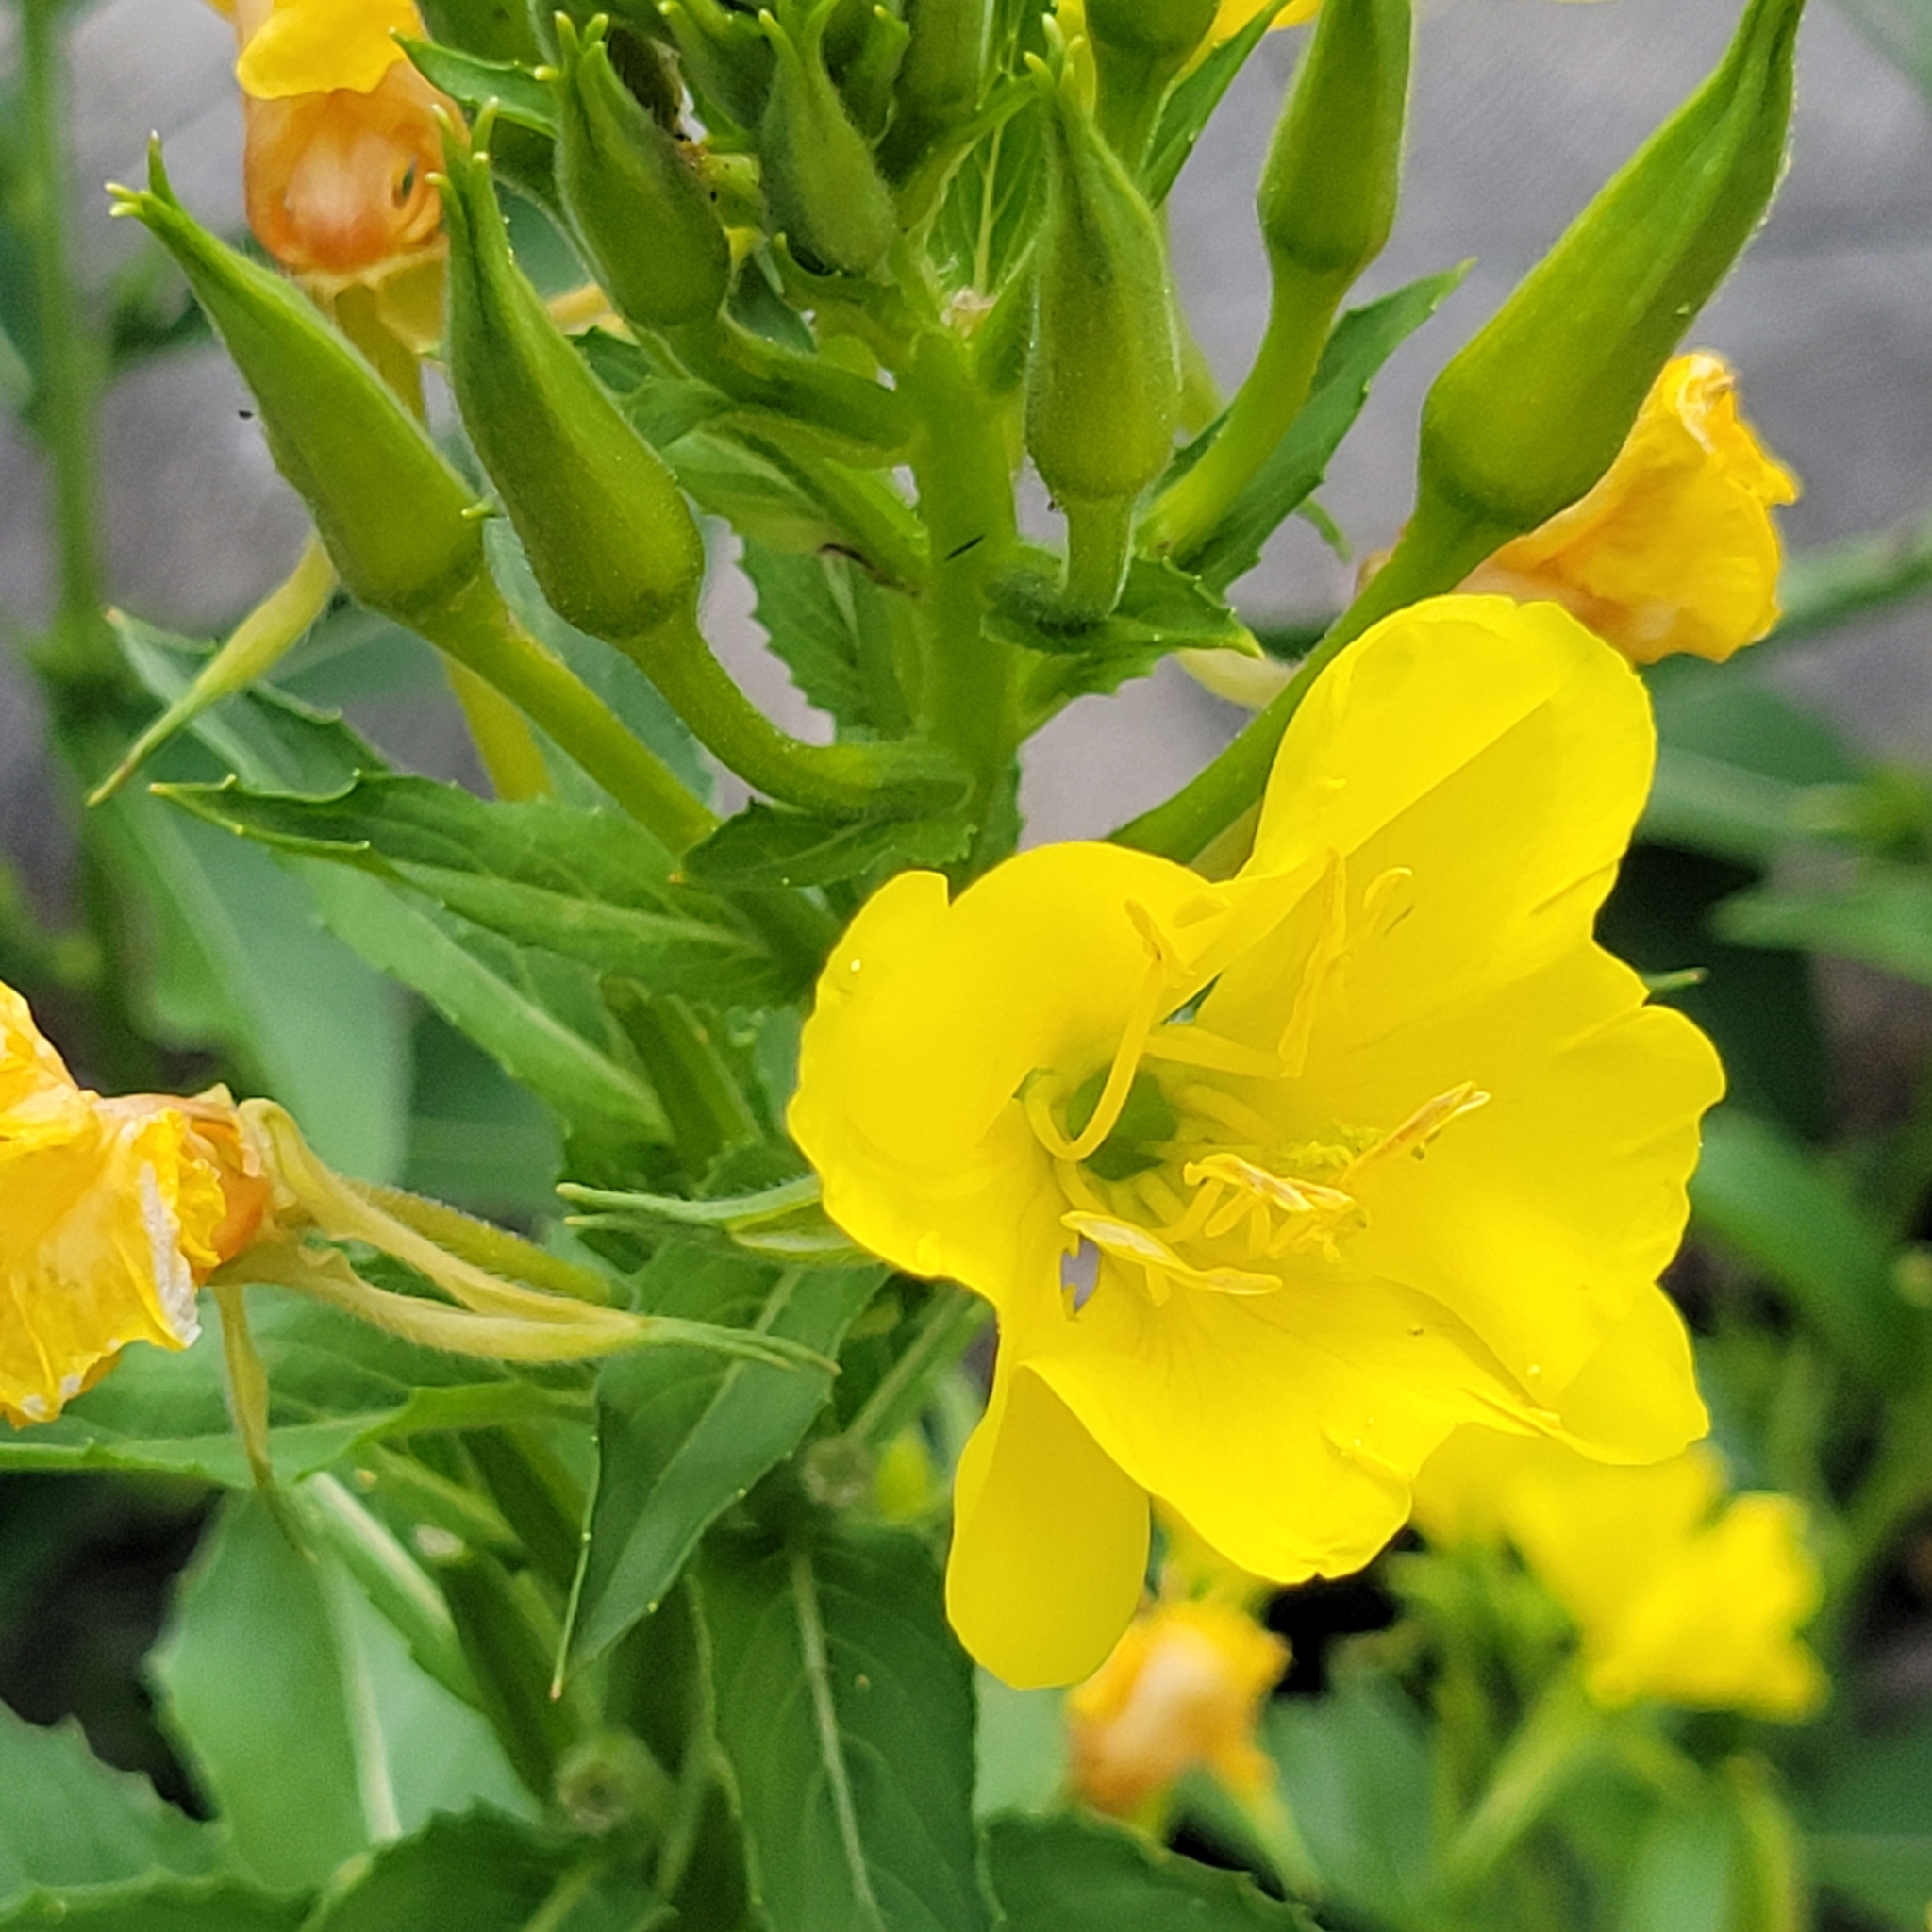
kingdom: Plantae
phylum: Tracheophyta
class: Magnoliopsida
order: Myrtales
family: Onagraceae
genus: Oenothera
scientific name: Oenothera biennis
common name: Common evening-primrose
